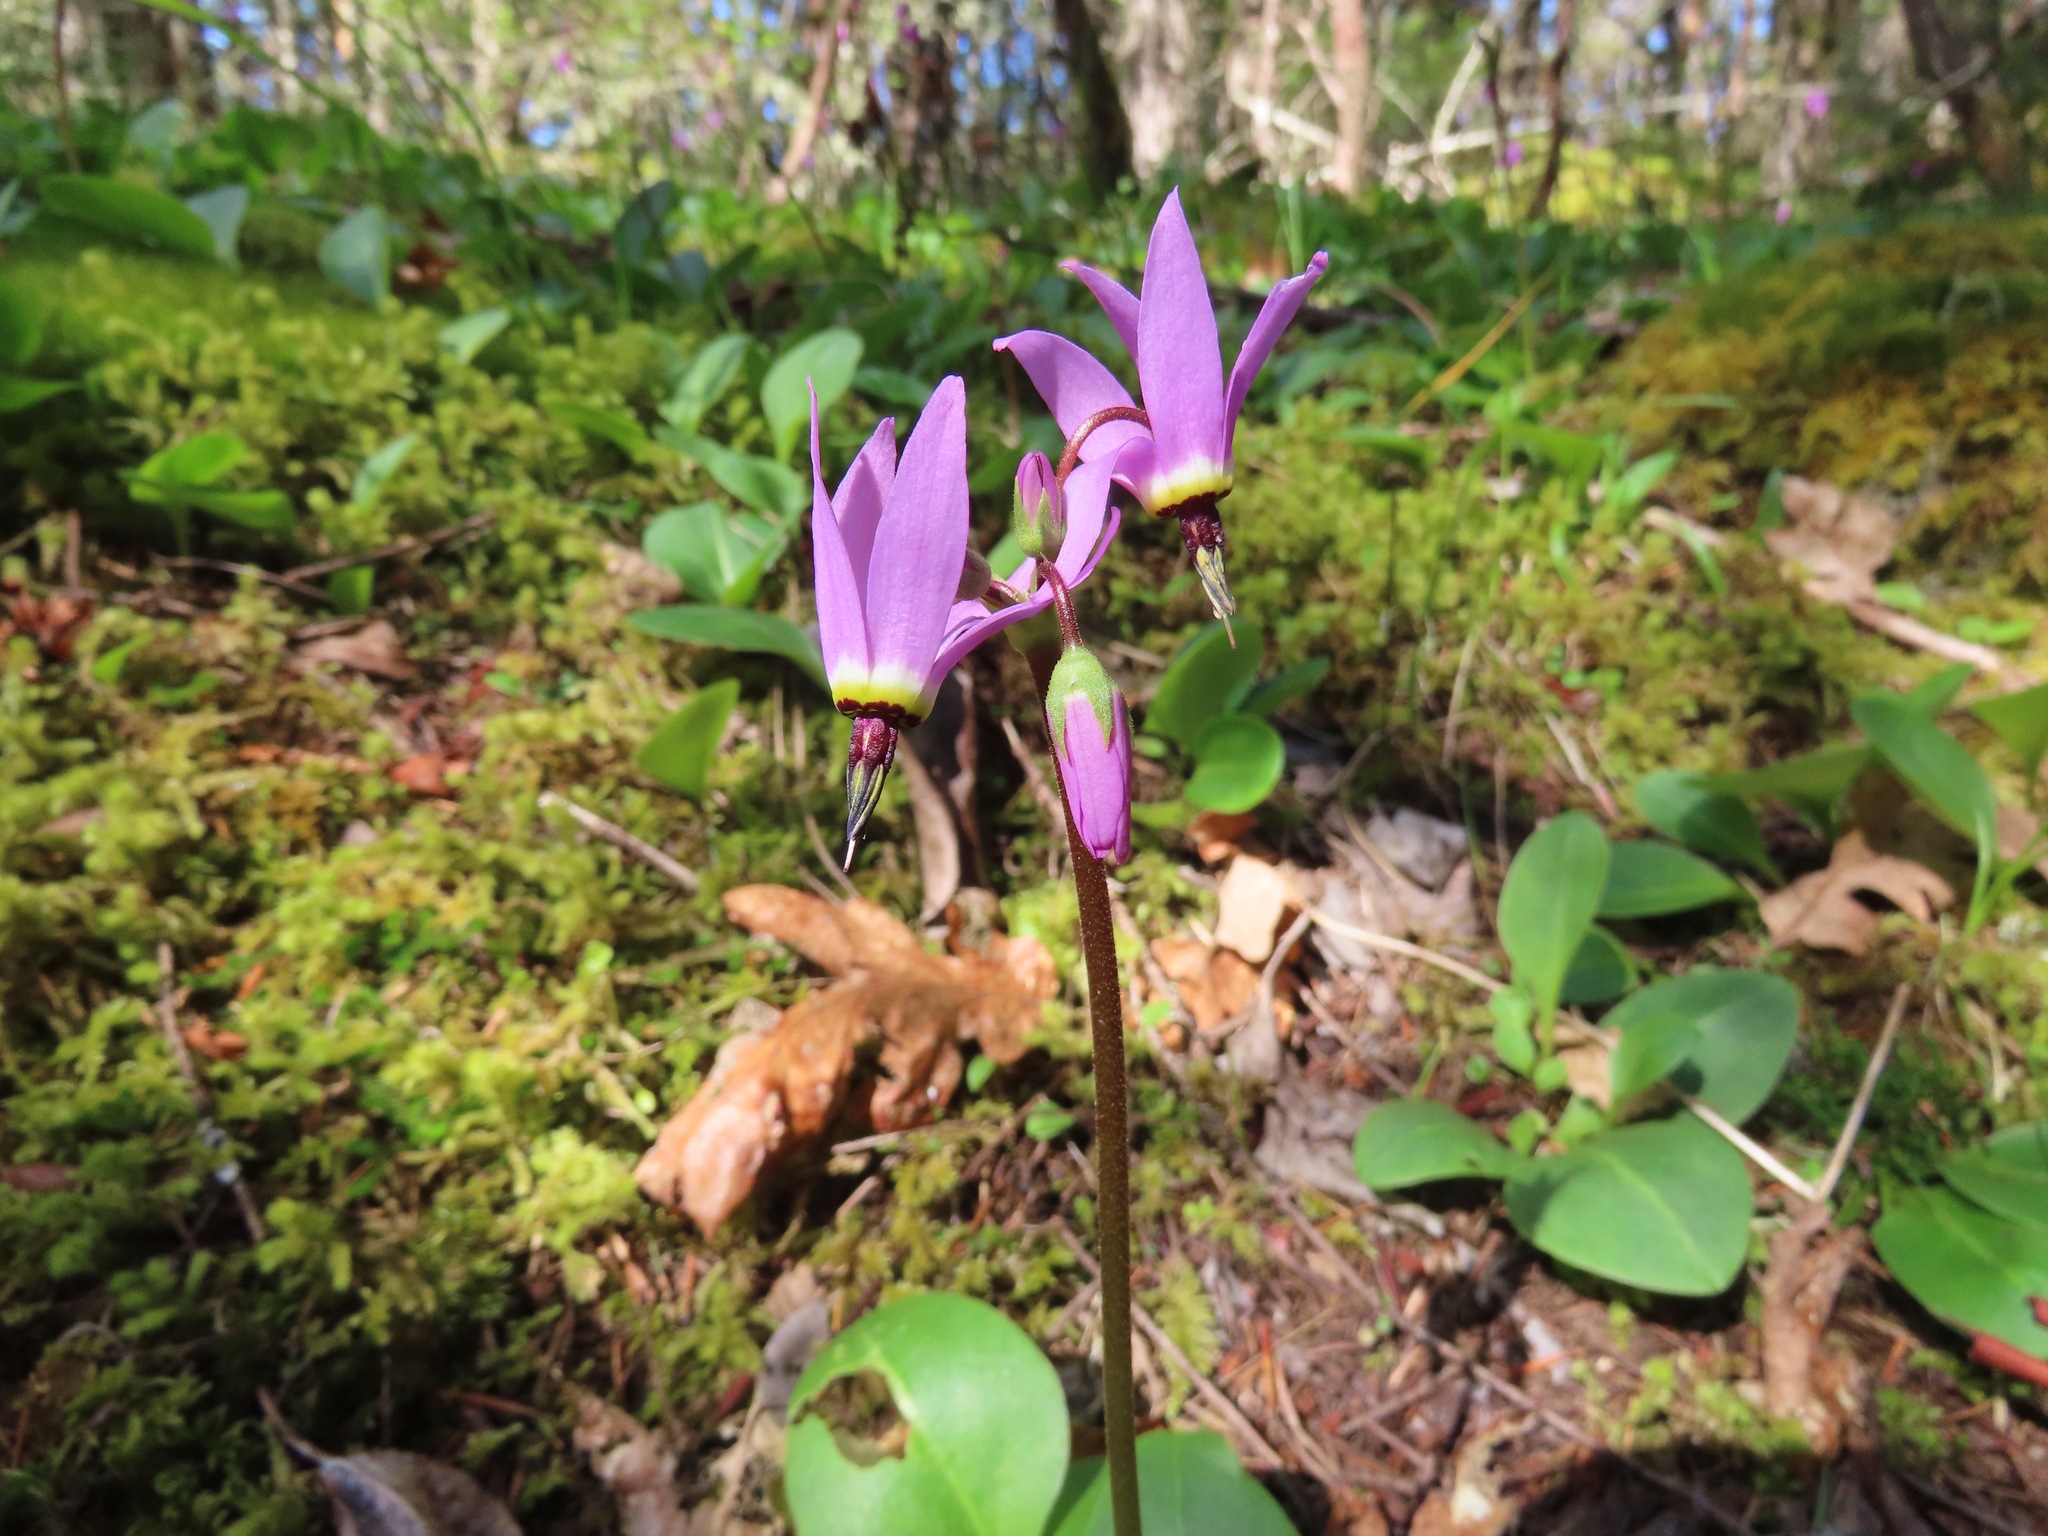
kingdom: Plantae
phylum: Tracheophyta
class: Magnoliopsida
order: Ericales
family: Primulaceae
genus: Dodecatheon
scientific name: Dodecatheon hendersonii
